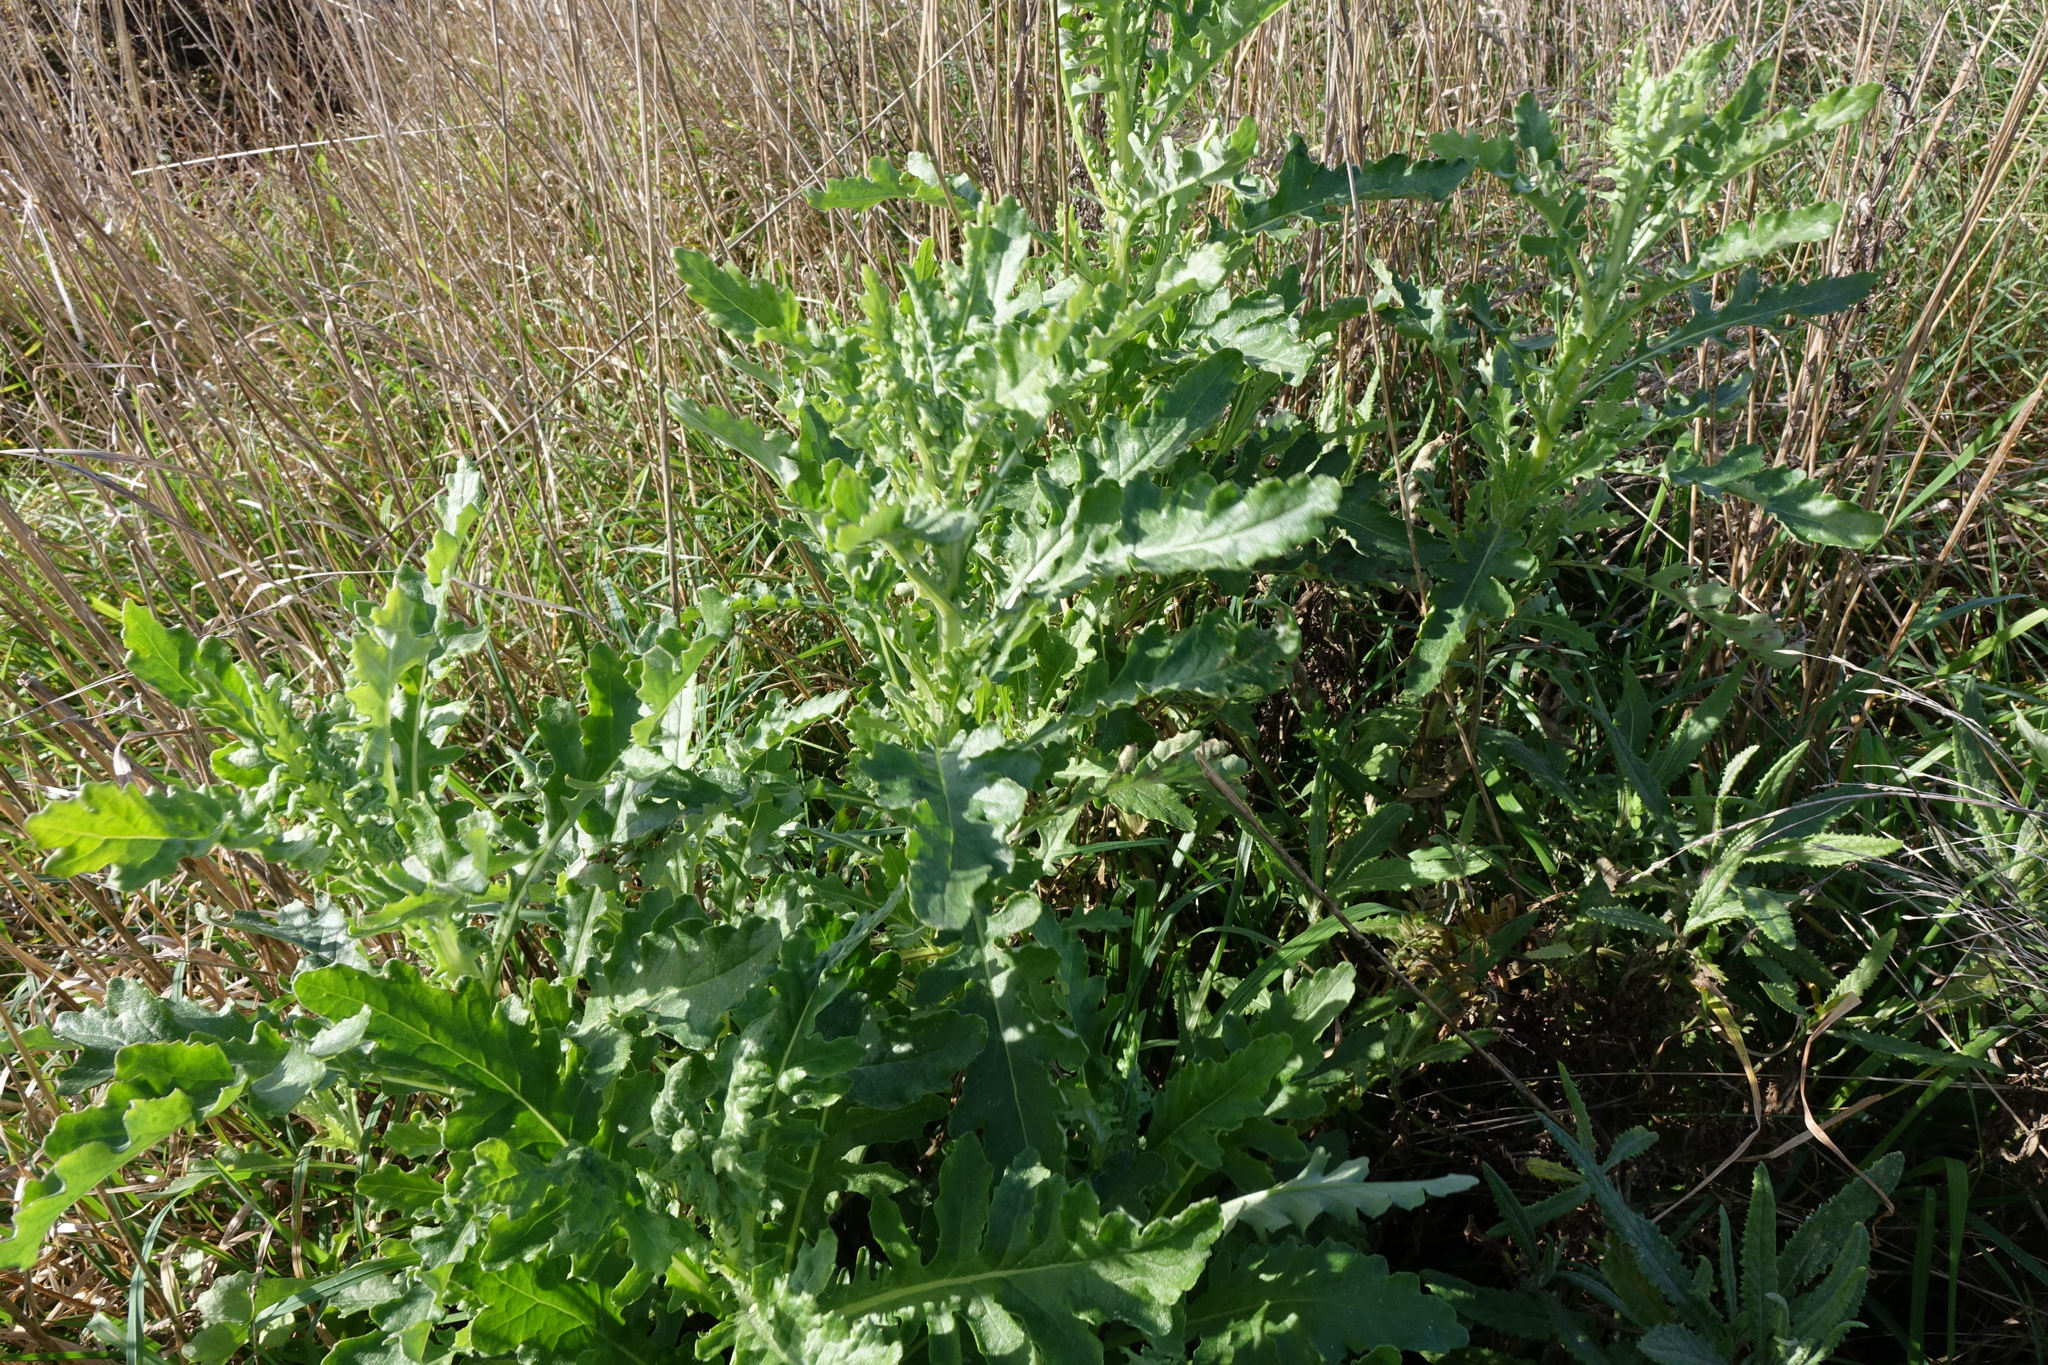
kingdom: Plantae
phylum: Tracheophyta
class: Magnoliopsida
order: Asterales
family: Asteraceae
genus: Senecio
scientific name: Senecio glomeratus
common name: Cutleaf burnweed
